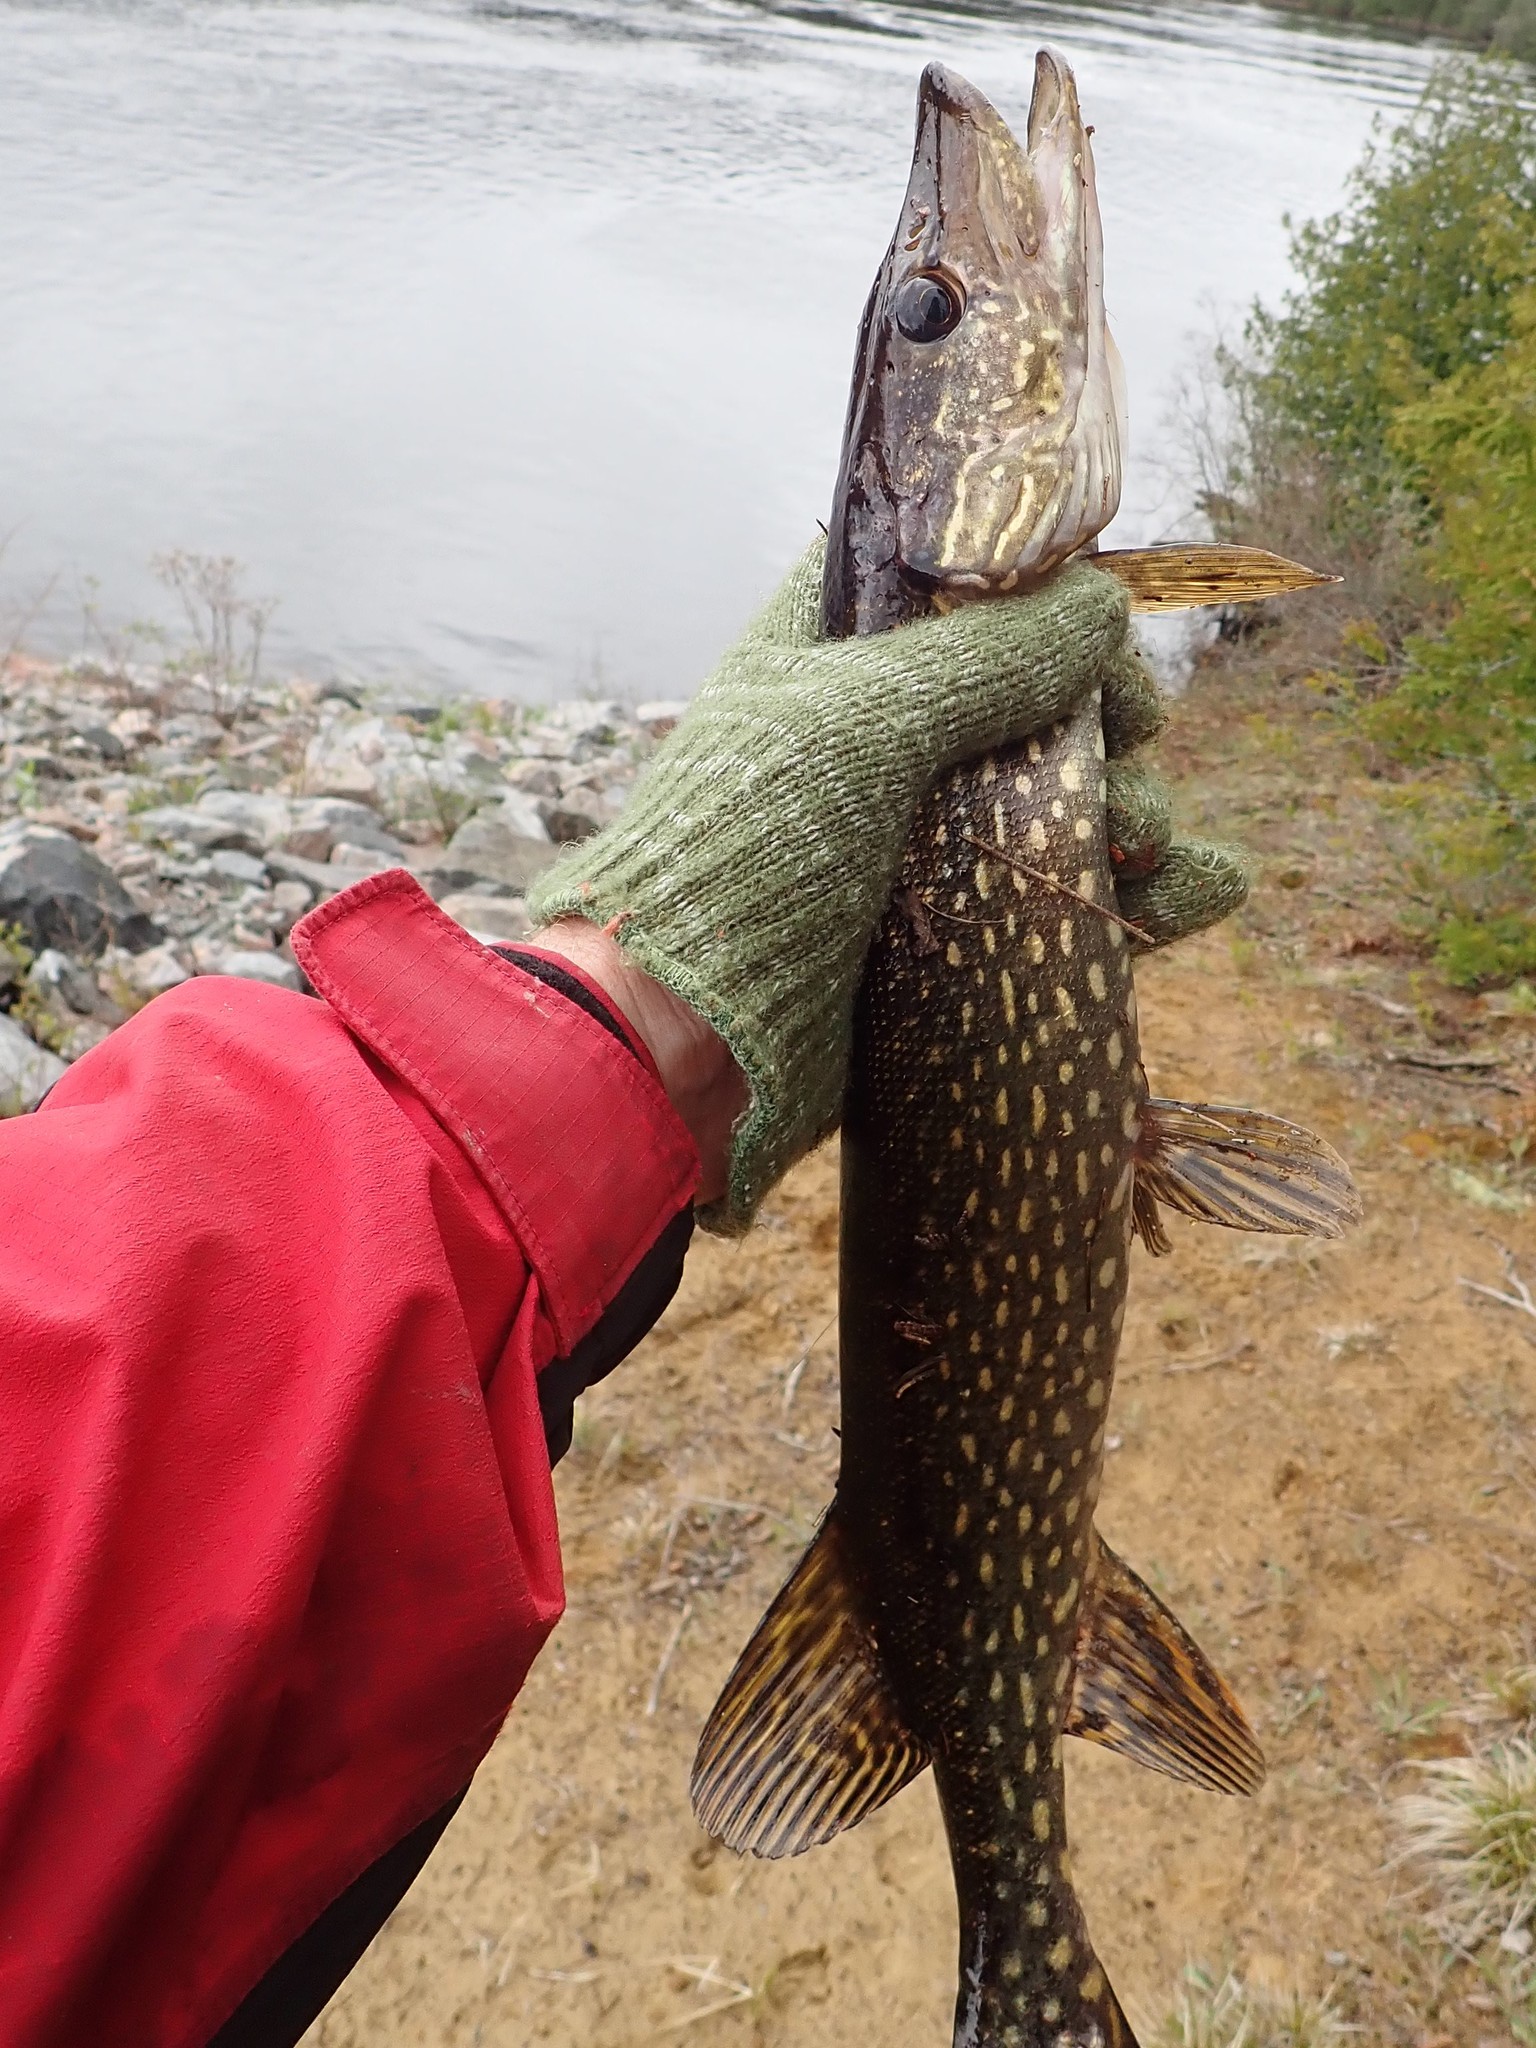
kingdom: Animalia
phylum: Chordata
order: Esociformes
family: Esocidae
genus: Esox
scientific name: Esox lucius
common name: Northern pike
